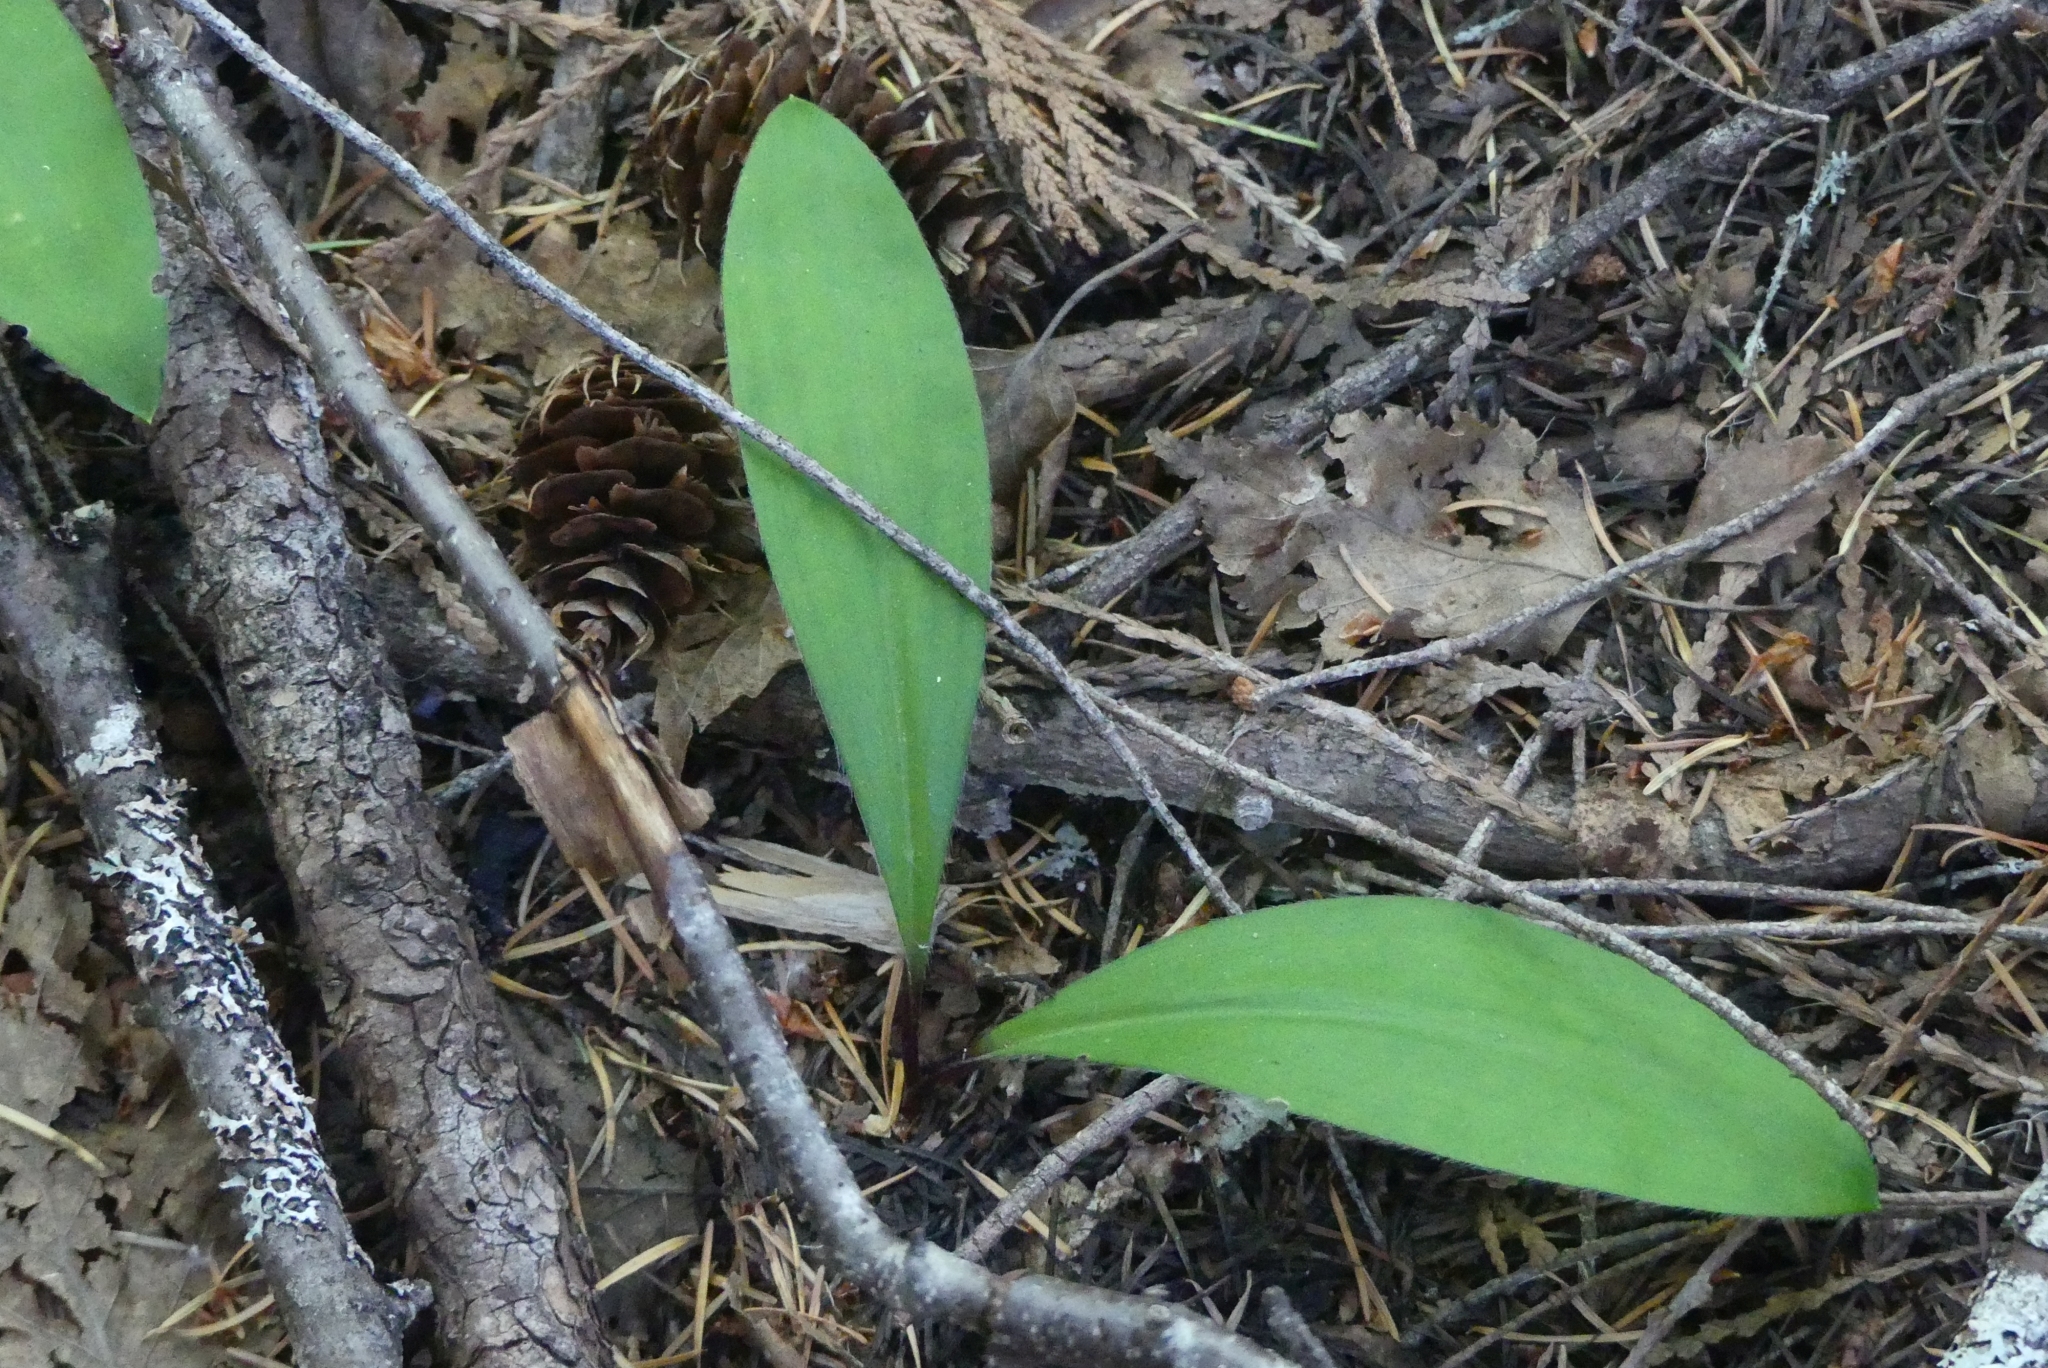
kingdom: Plantae
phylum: Tracheophyta
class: Liliopsida
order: Liliales
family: Liliaceae
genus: Clintonia
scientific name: Clintonia uniflora
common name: Queen's cup
